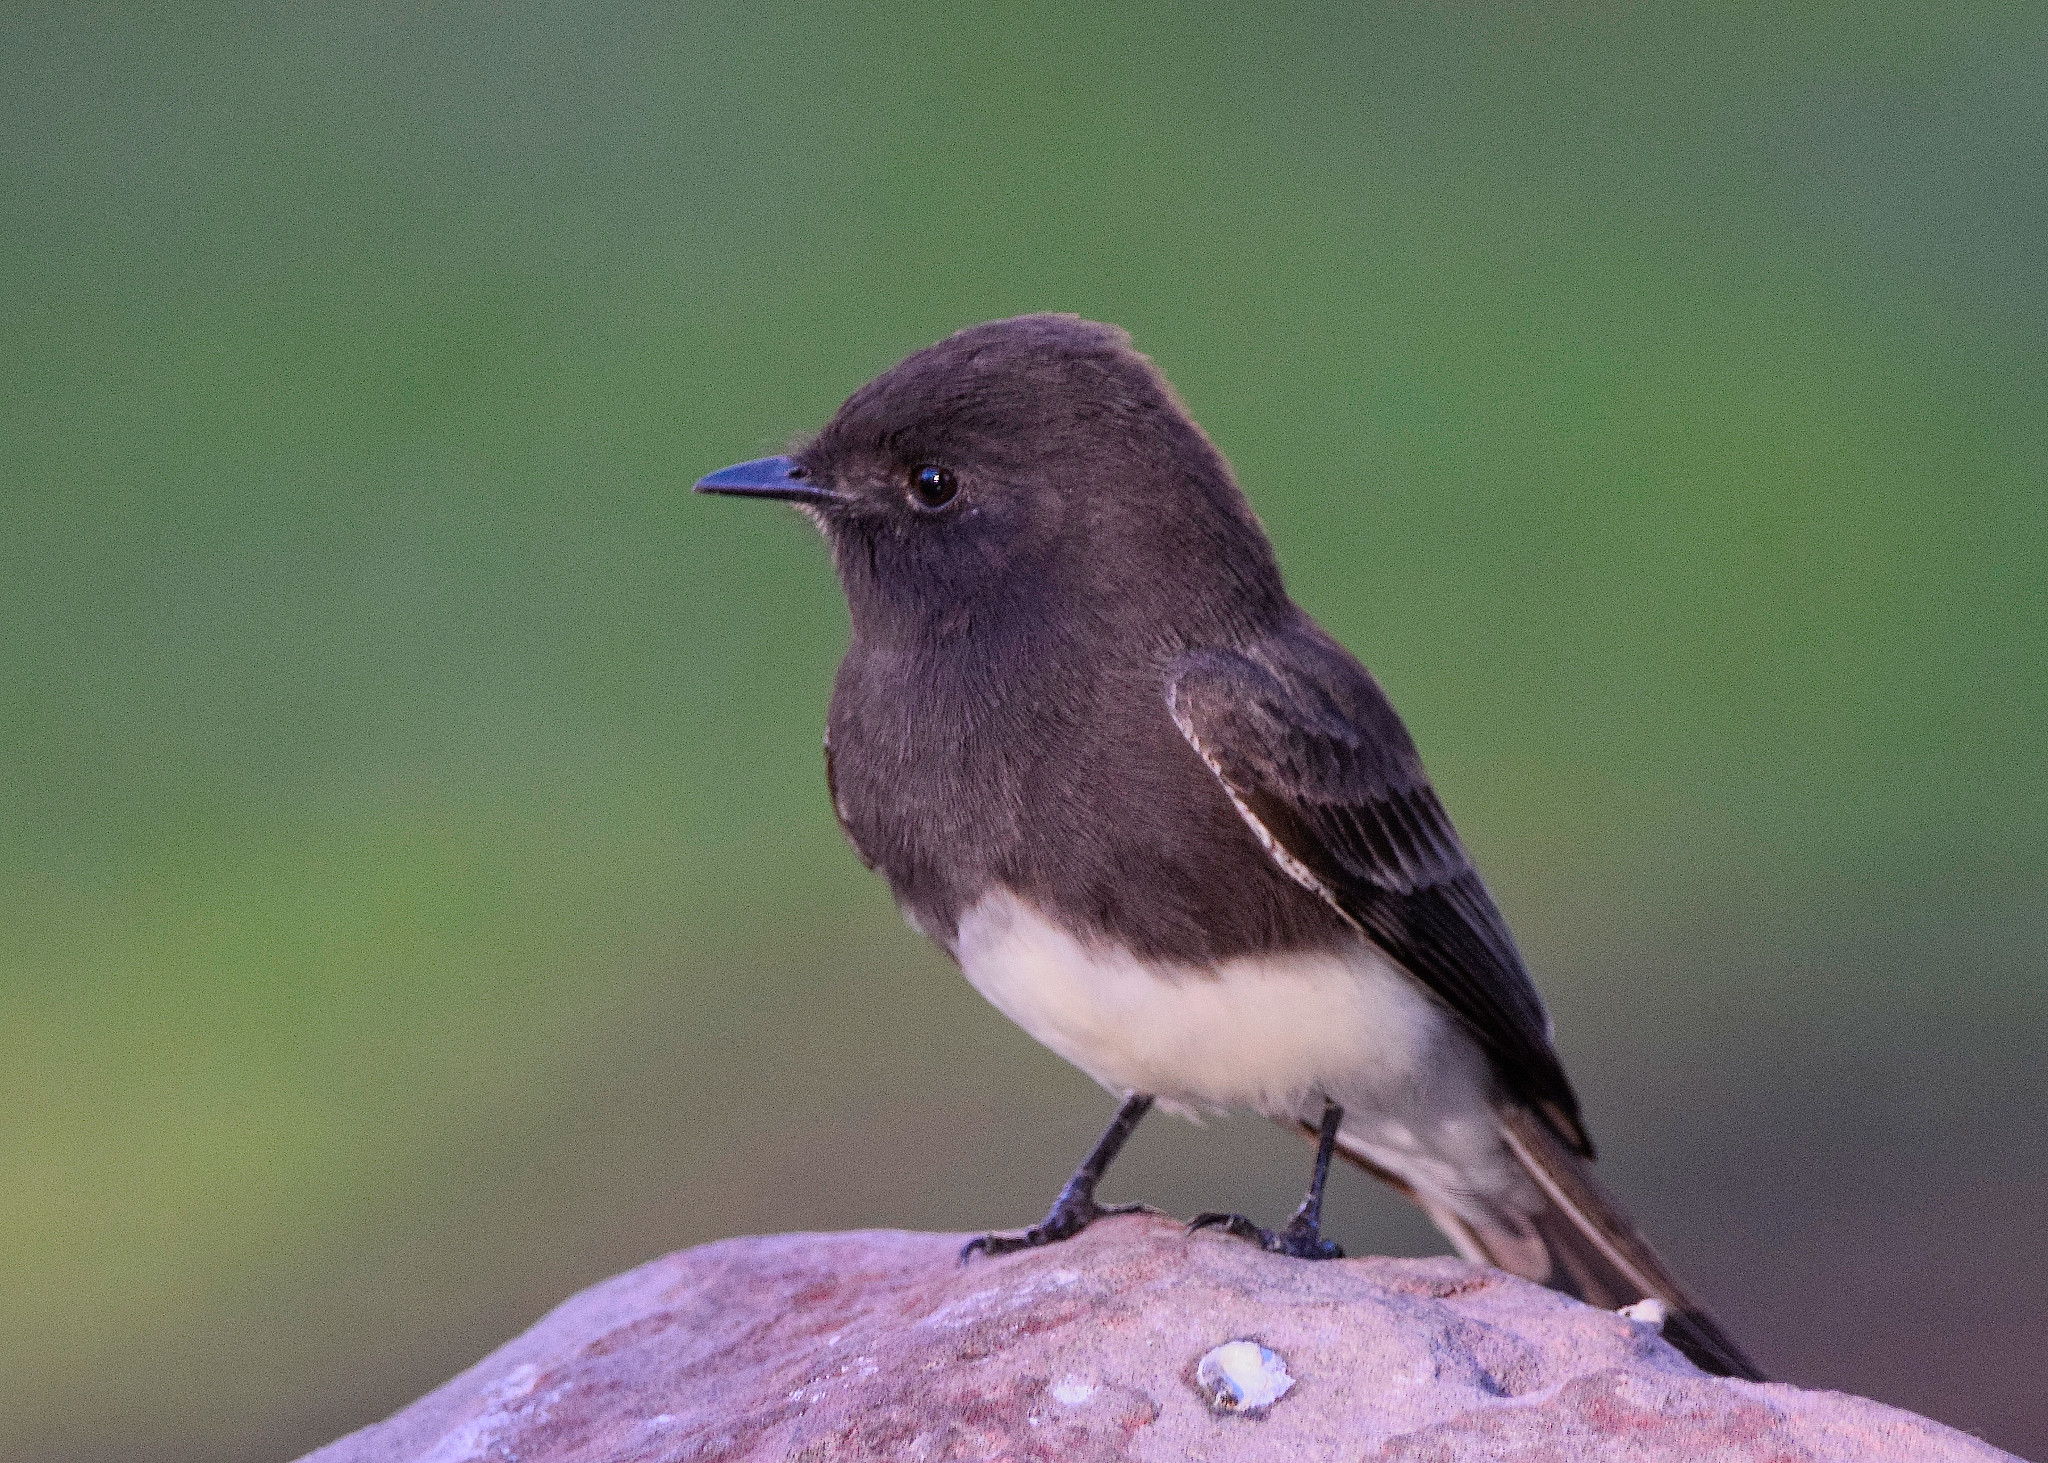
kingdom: Animalia
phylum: Chordata
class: Aves
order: Passeriformes
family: Tyrannidae
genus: Sayornis
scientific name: Sayornis nigricans
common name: Black phoebe
